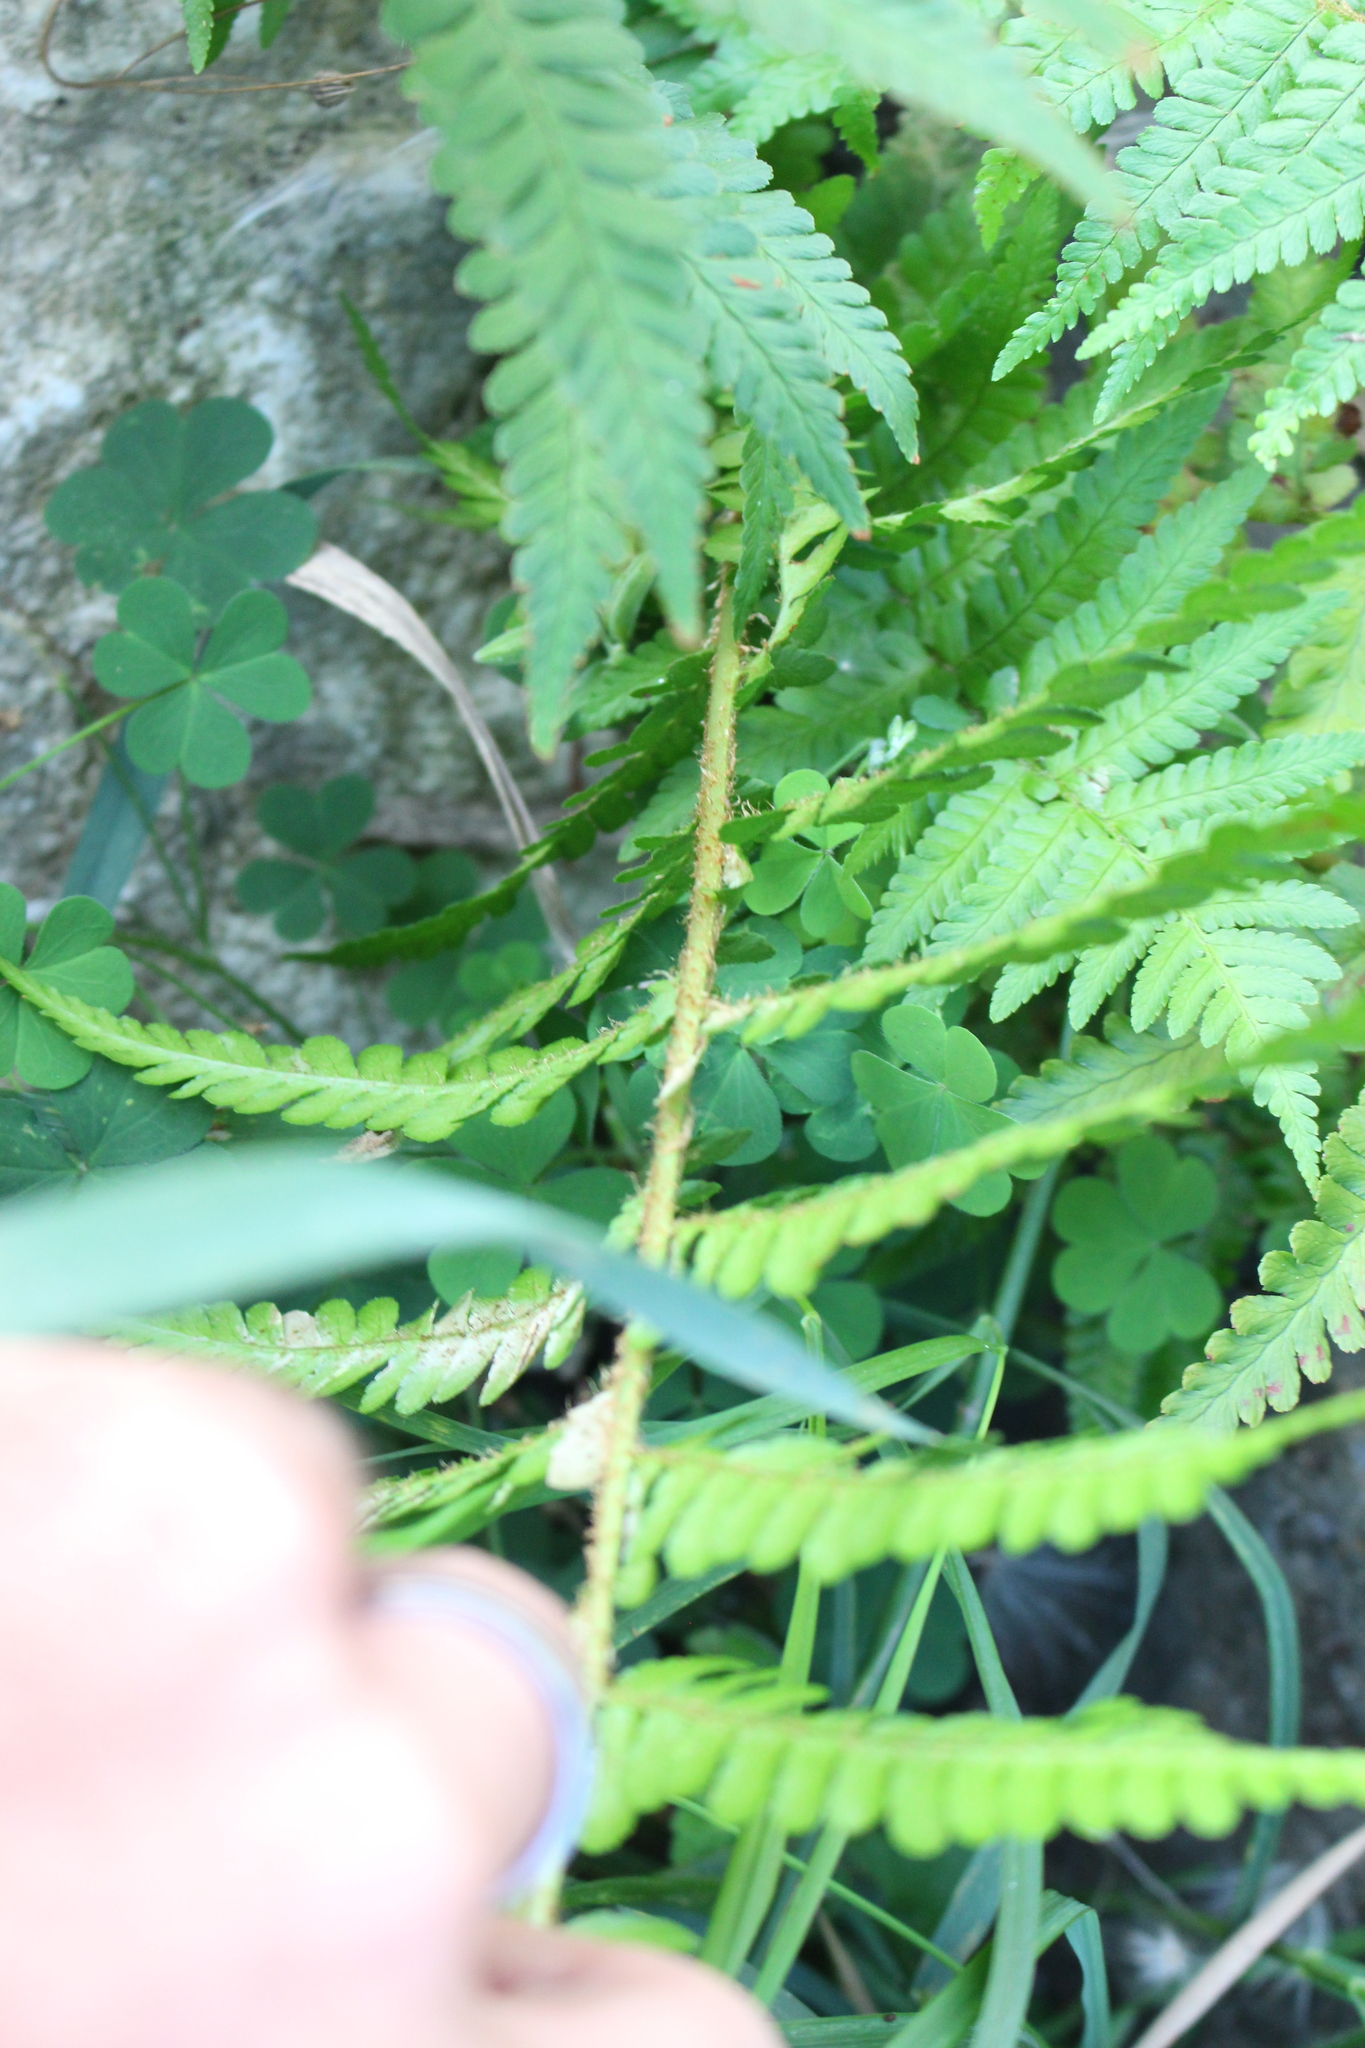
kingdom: Plantae
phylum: Tracheophyta
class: Polypodiopsida
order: Polypodiales
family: Dryopteridaceae
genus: Dryopteris
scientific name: Dryopteris filix-mas
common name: Male fern
